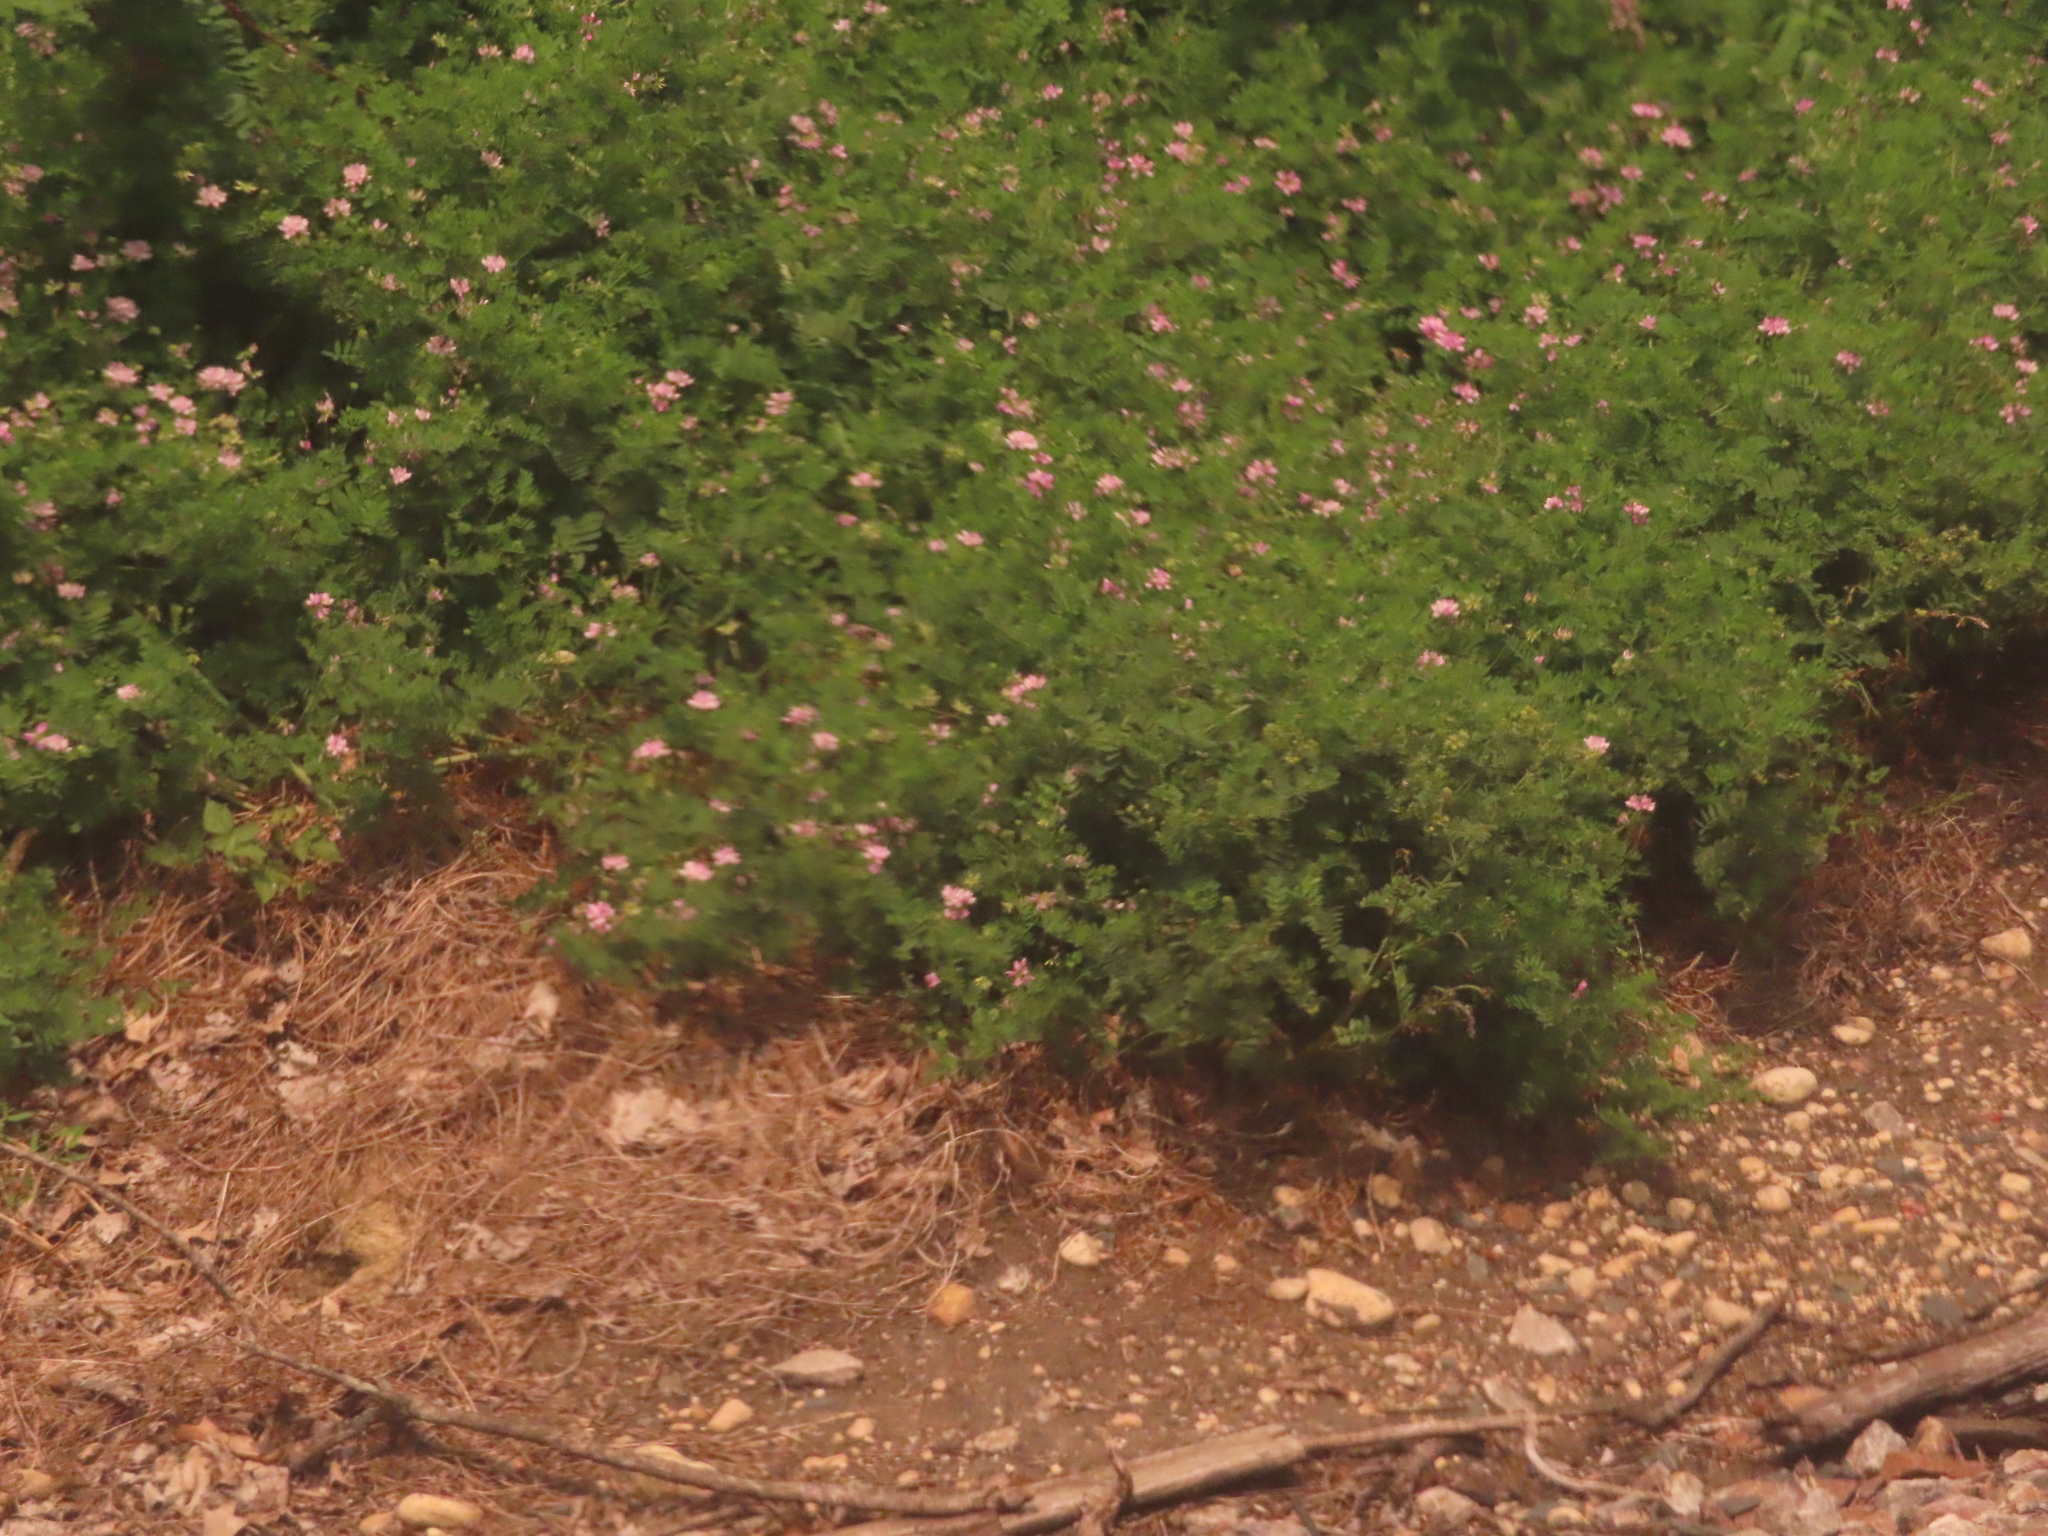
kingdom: Plantae
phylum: Tracheophyta
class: Magnoliopsida
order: Fabales
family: Fabaceae
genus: Coronilla
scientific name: Coronilla varia
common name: Crownvetch
